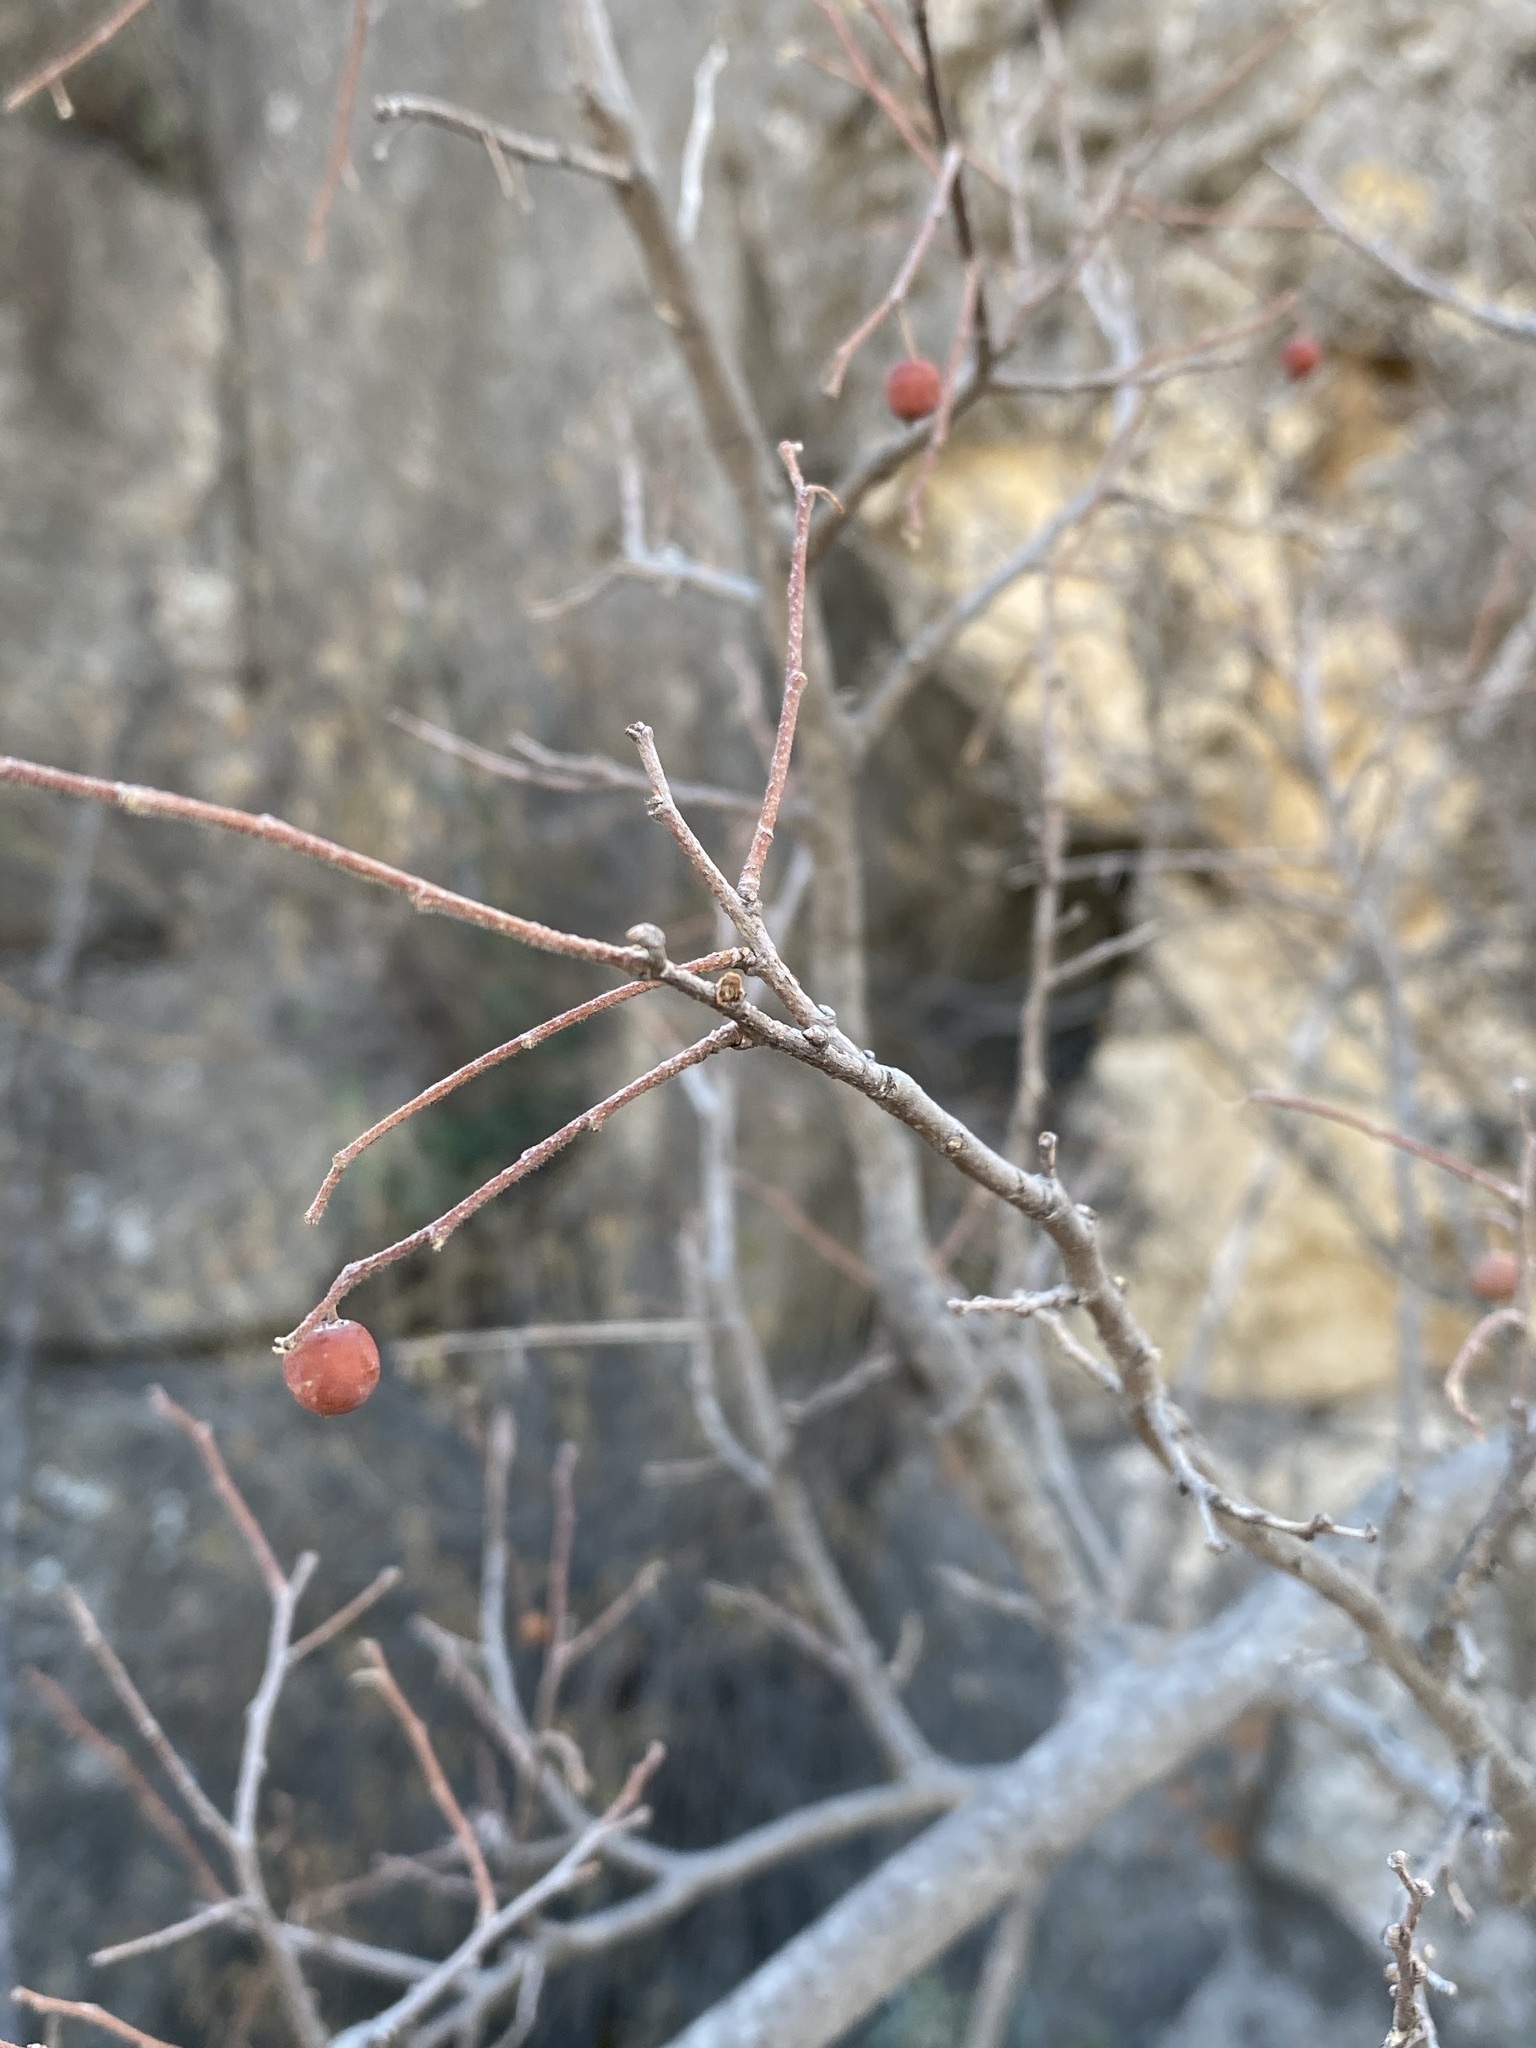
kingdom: Plantae
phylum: Tracheophyta
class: Magnoliopsida
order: Rosales
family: Cannabaceae
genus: Celtis
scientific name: Celtis reticulata
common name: Netleaf hackberry
